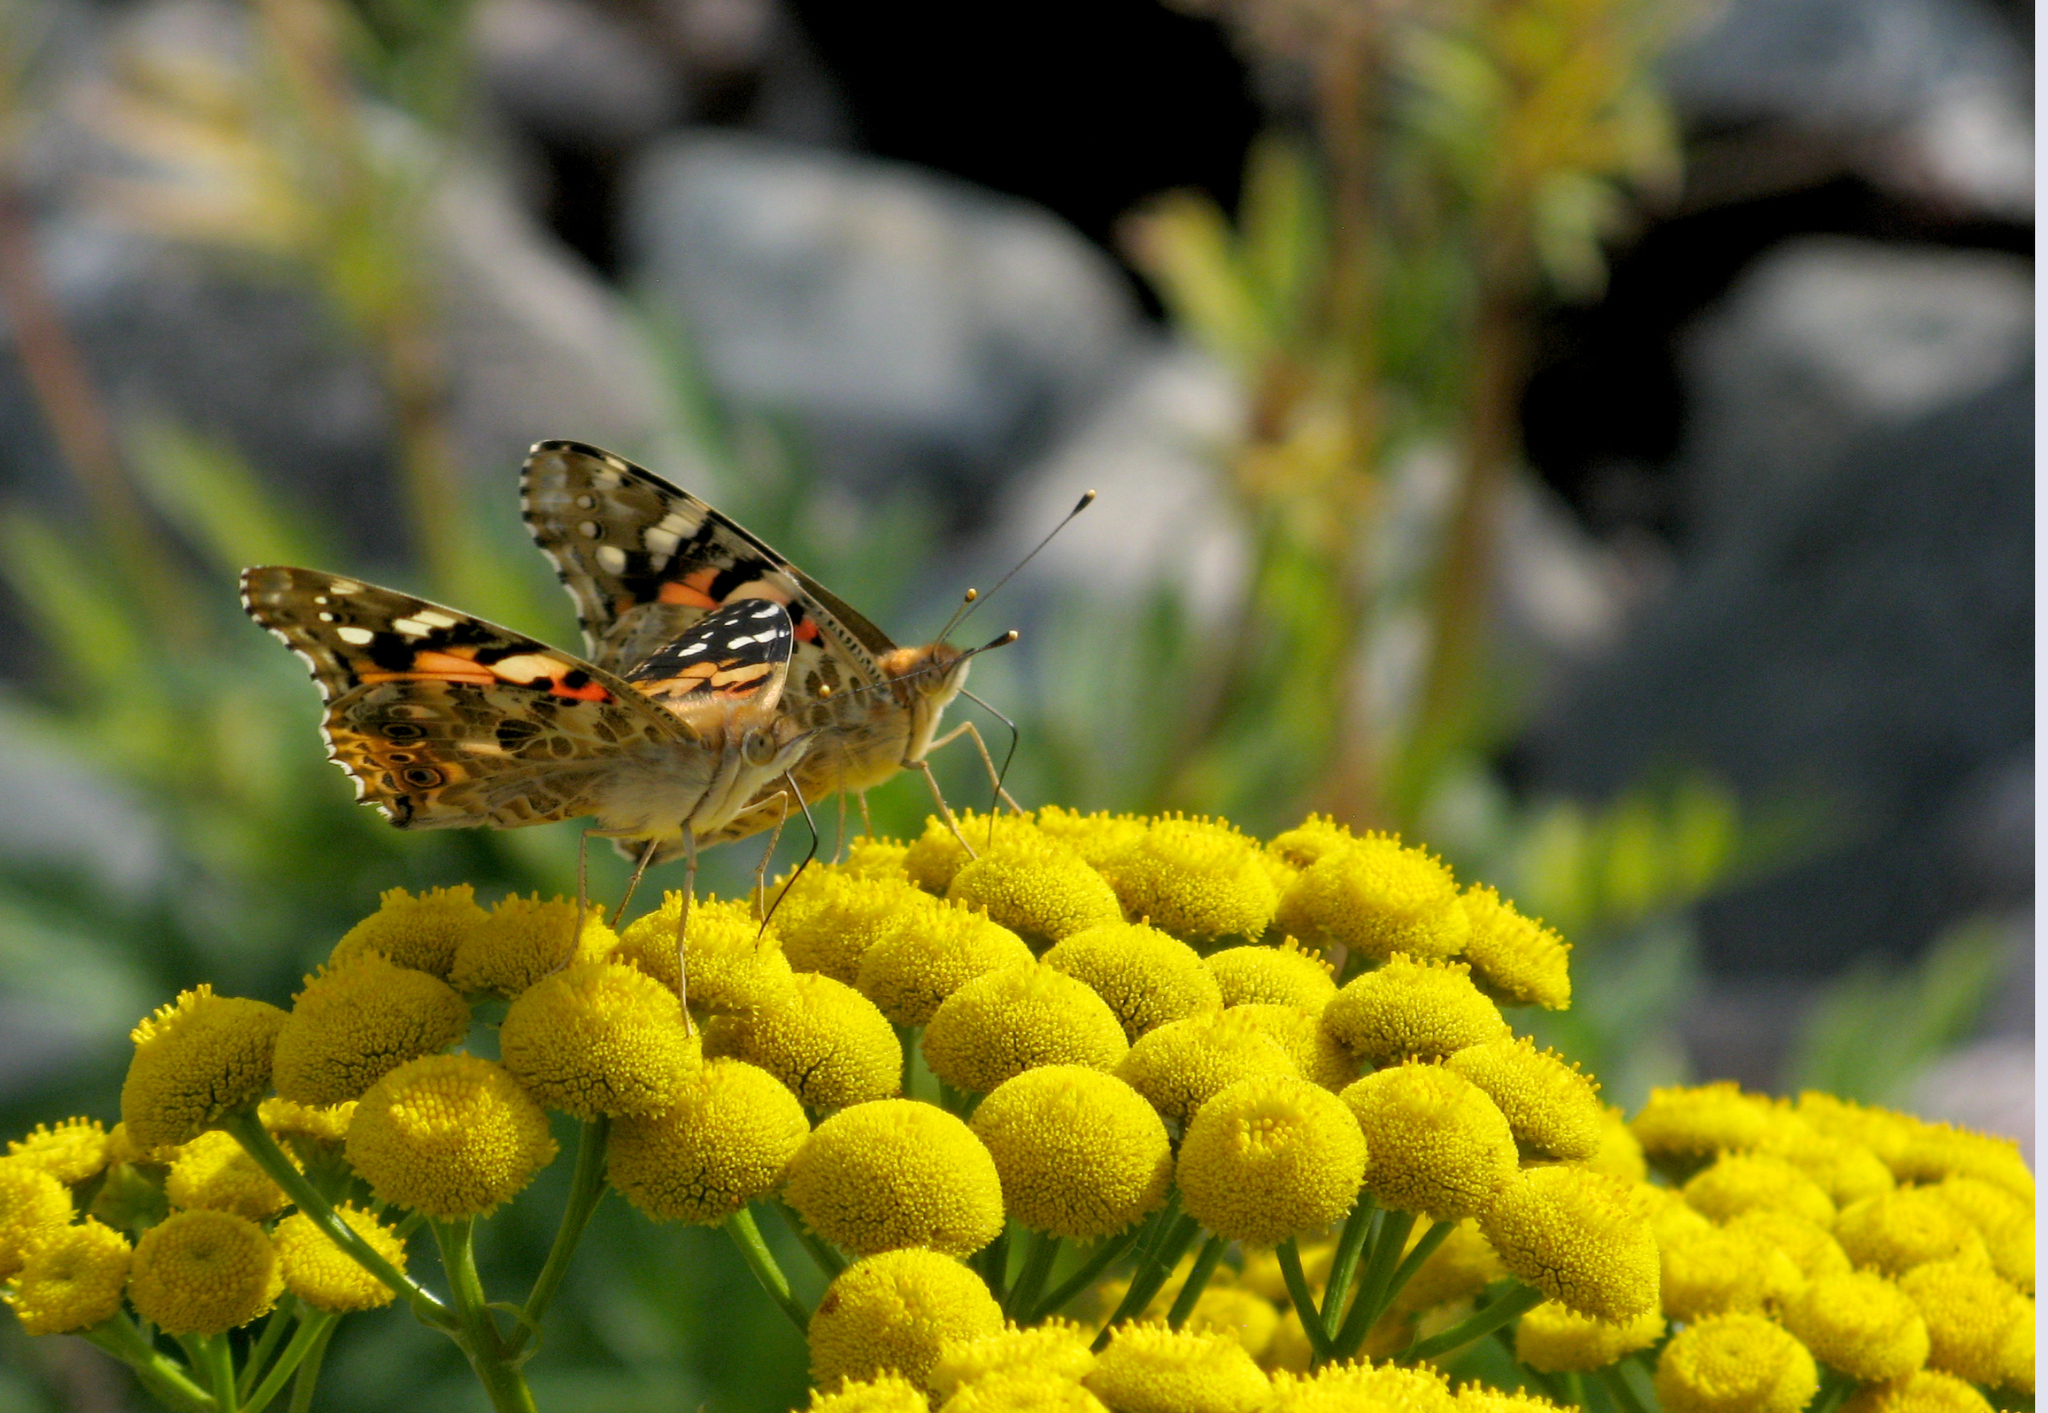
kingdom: Animalia
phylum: Arthropoda
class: Insecta
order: Lepidoptera
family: Nymphalidae
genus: Vanessa
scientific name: Vanessa cardui
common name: Painted lady
